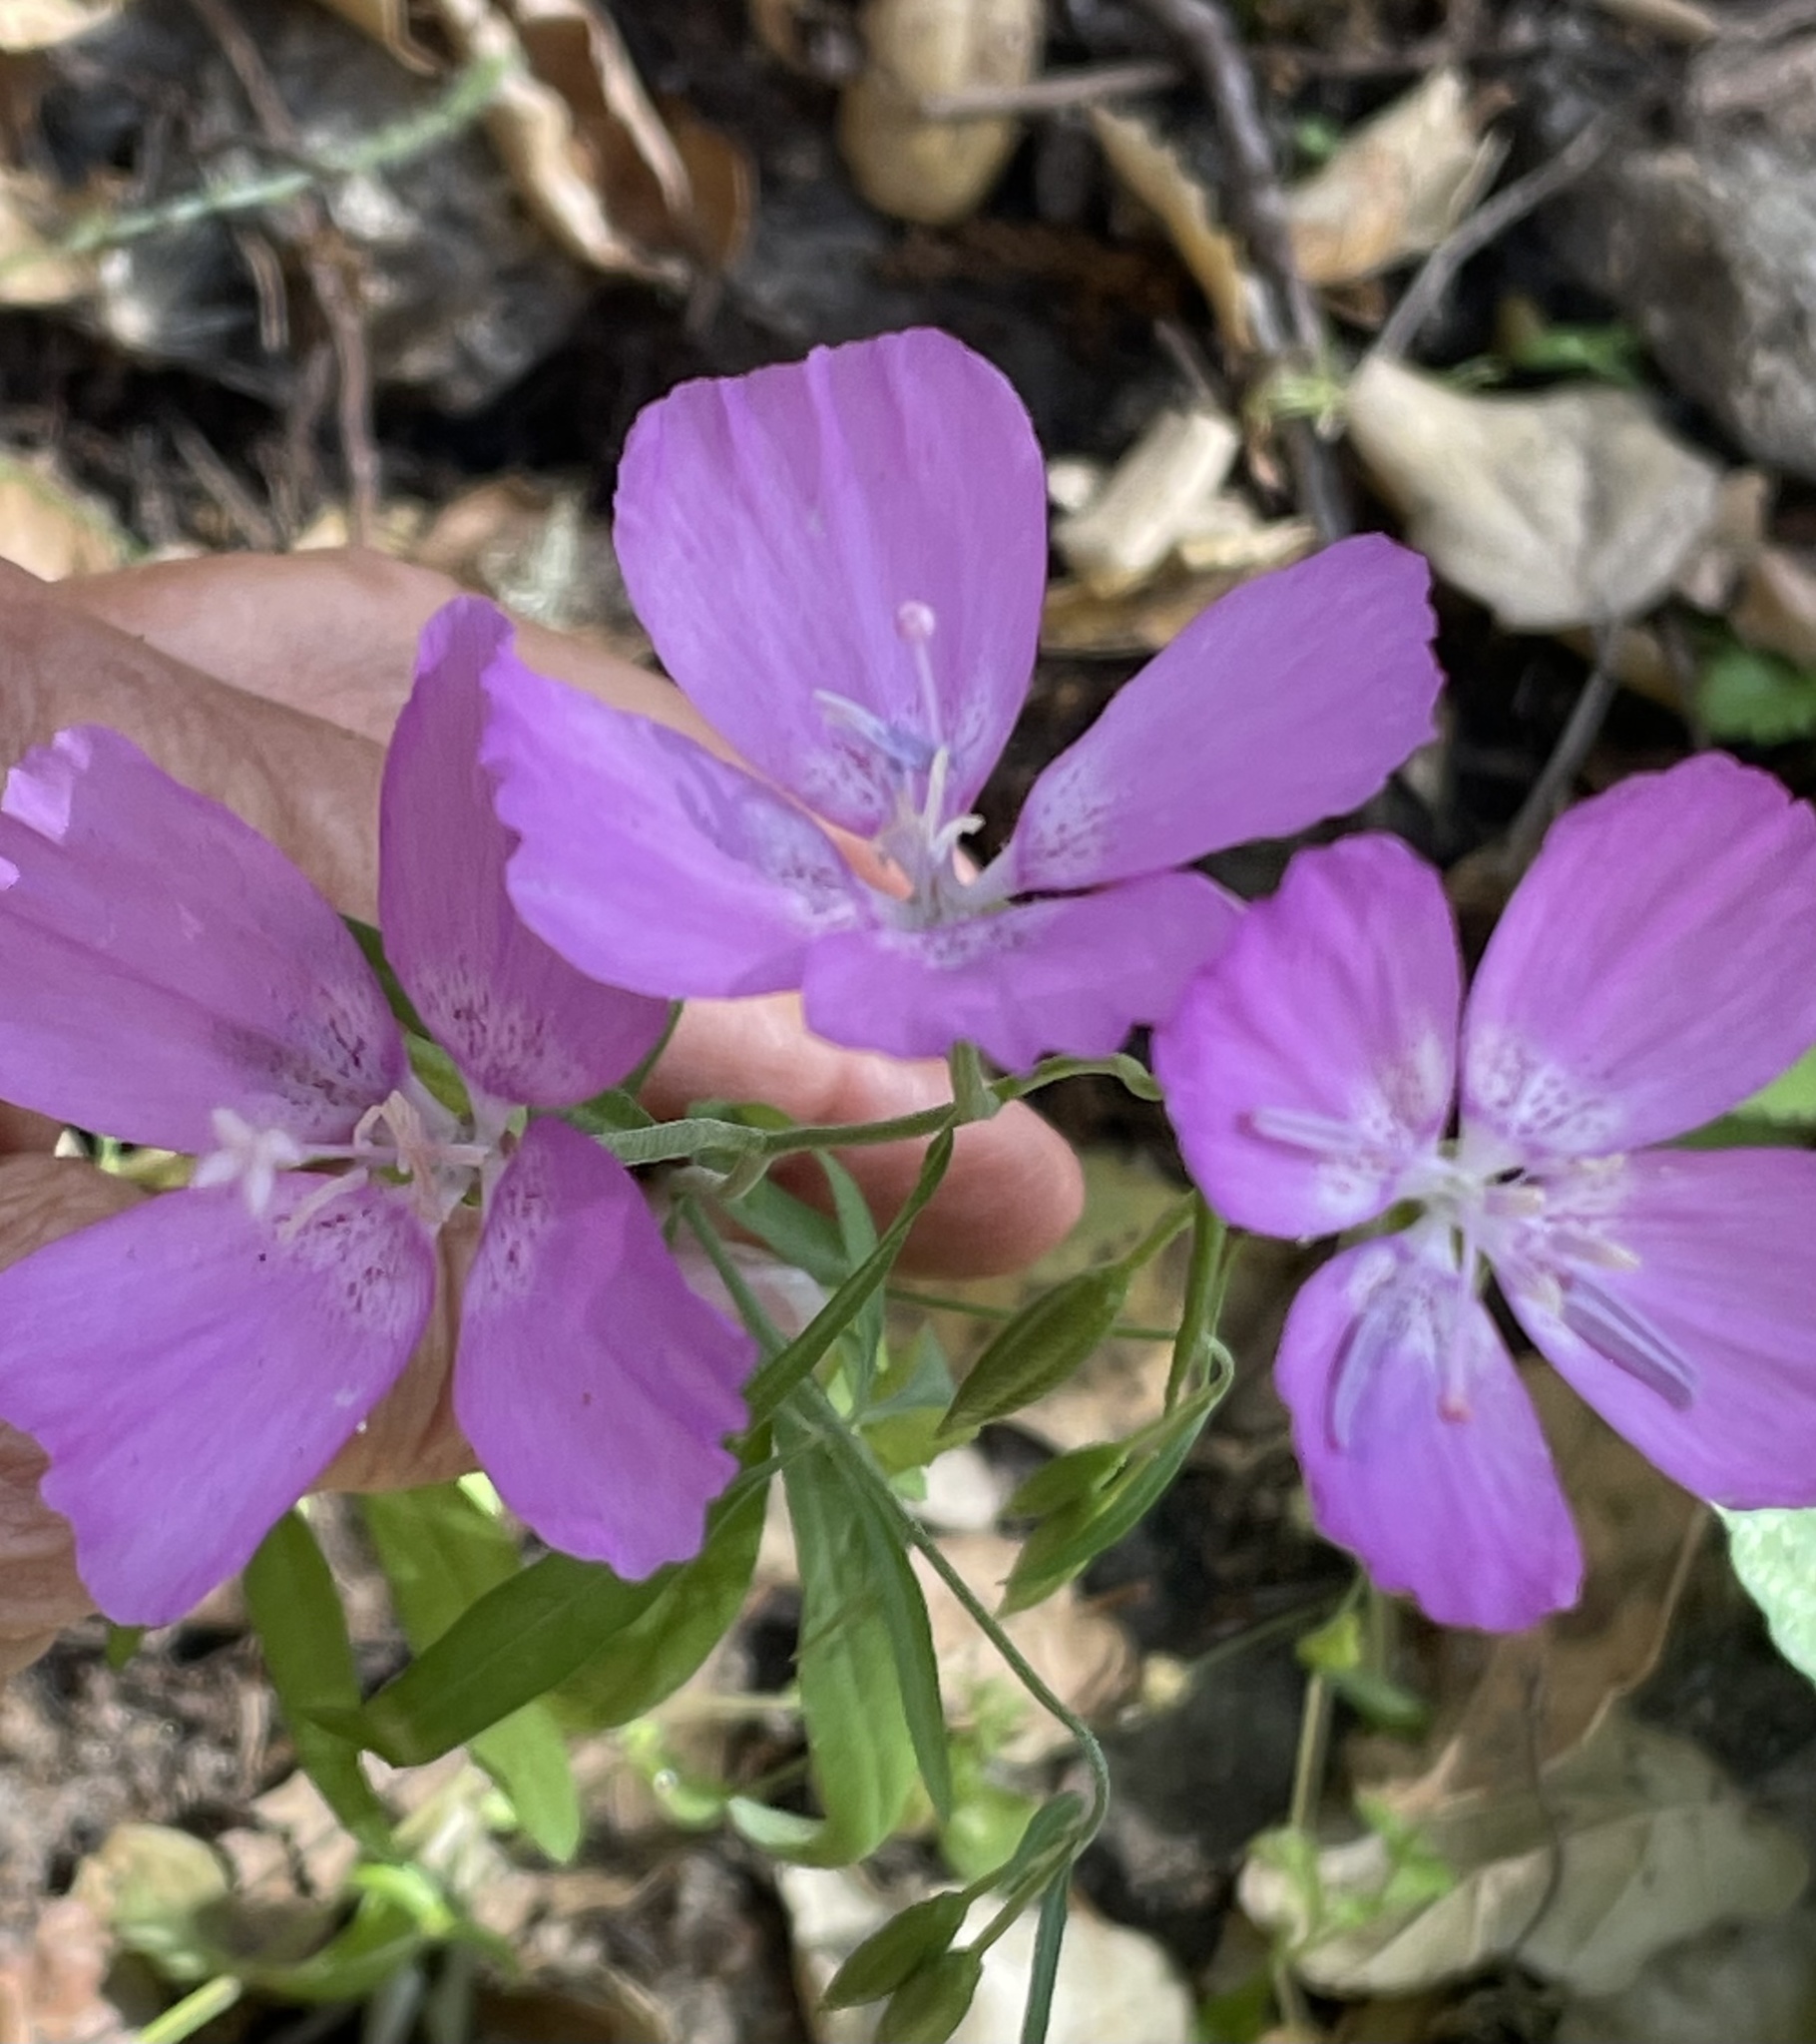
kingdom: Plantae
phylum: Tracheophyta
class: Magnoliopsida
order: Myrtales
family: Onagraceae
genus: Clarkia
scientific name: Clarkia lewisii
